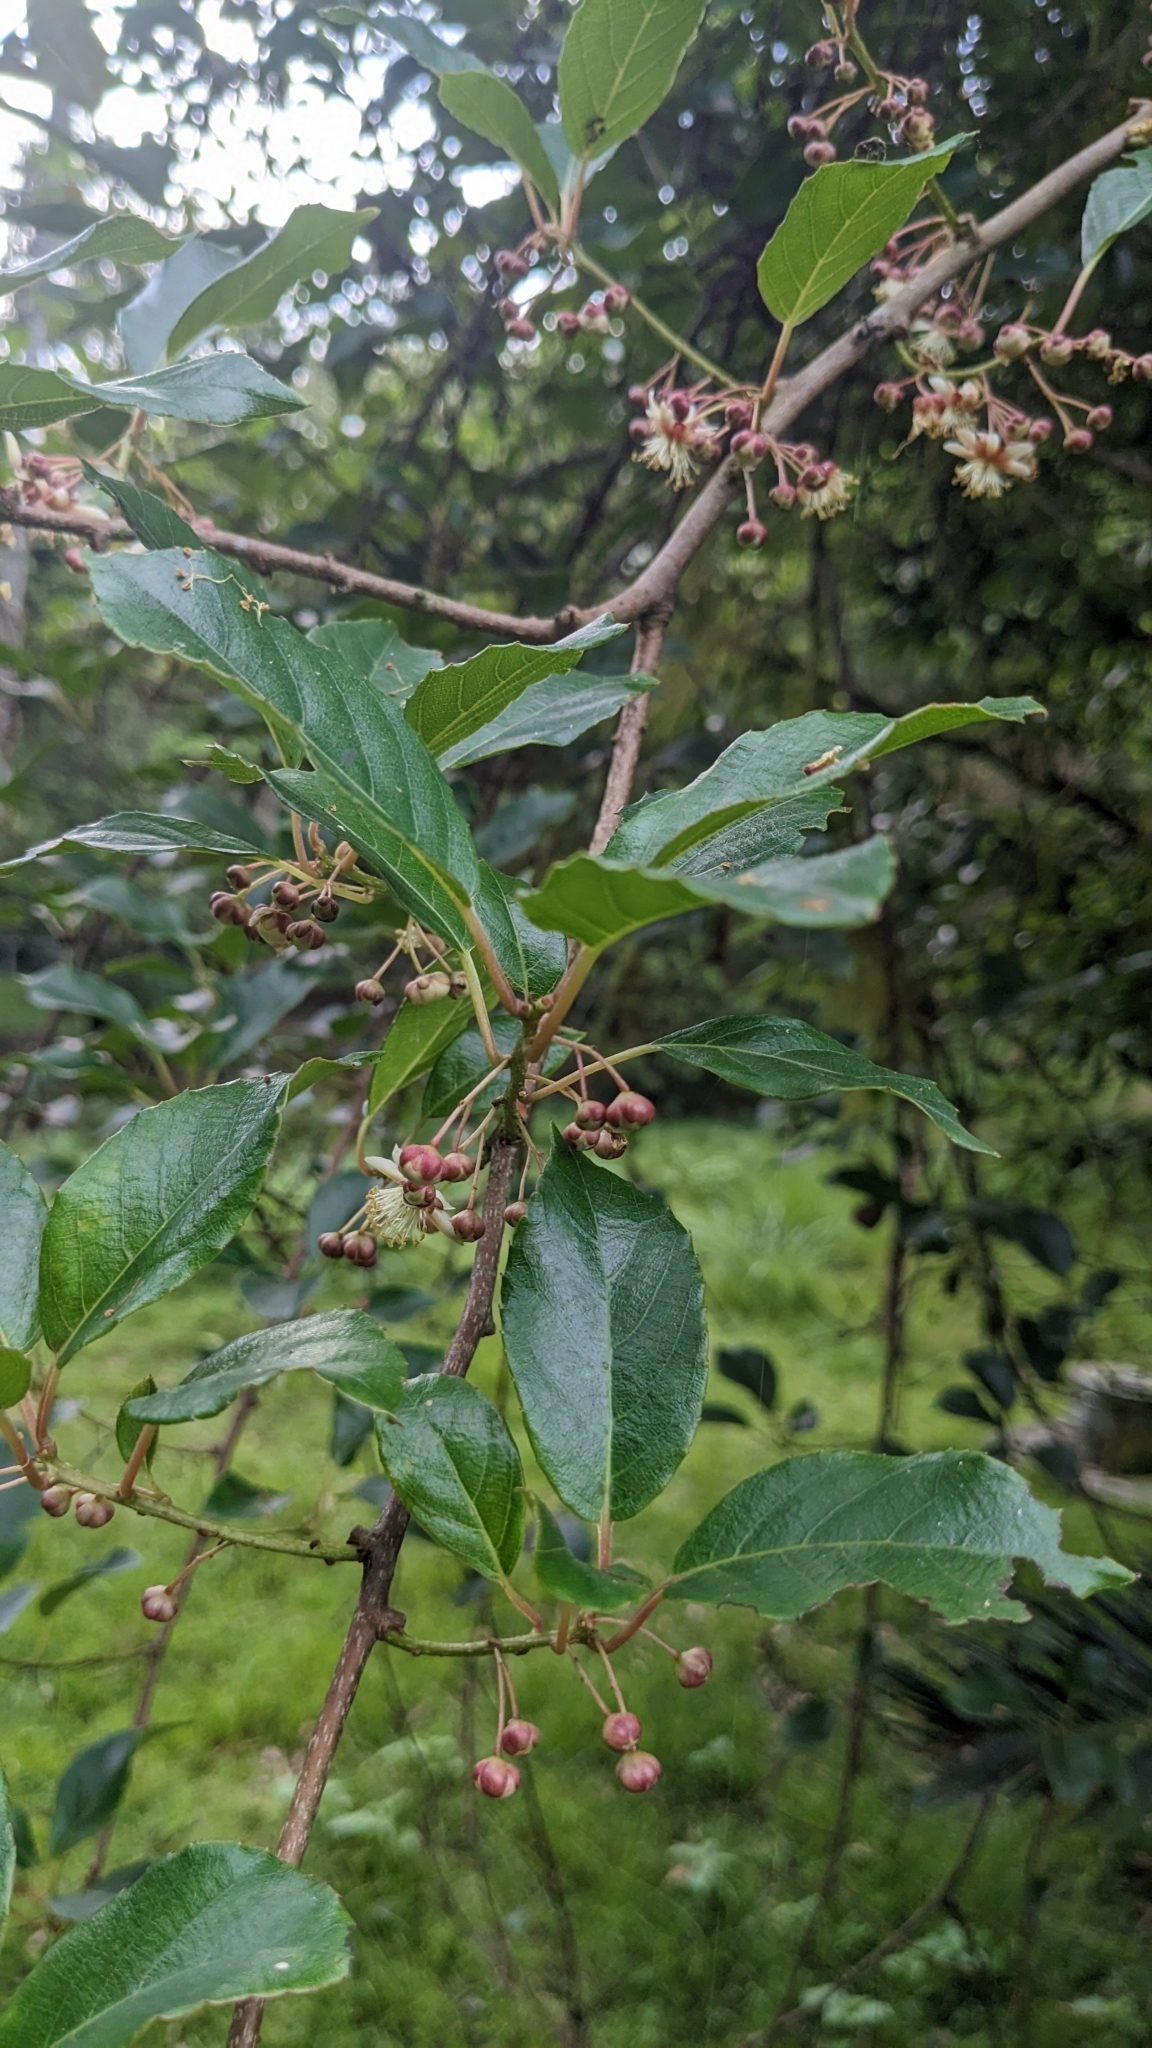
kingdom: Plantae
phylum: Tracheophyta
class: Magnoliopsida
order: Ericales
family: Actinidiaceae
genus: Actinidia
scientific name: Actinidia callosa
